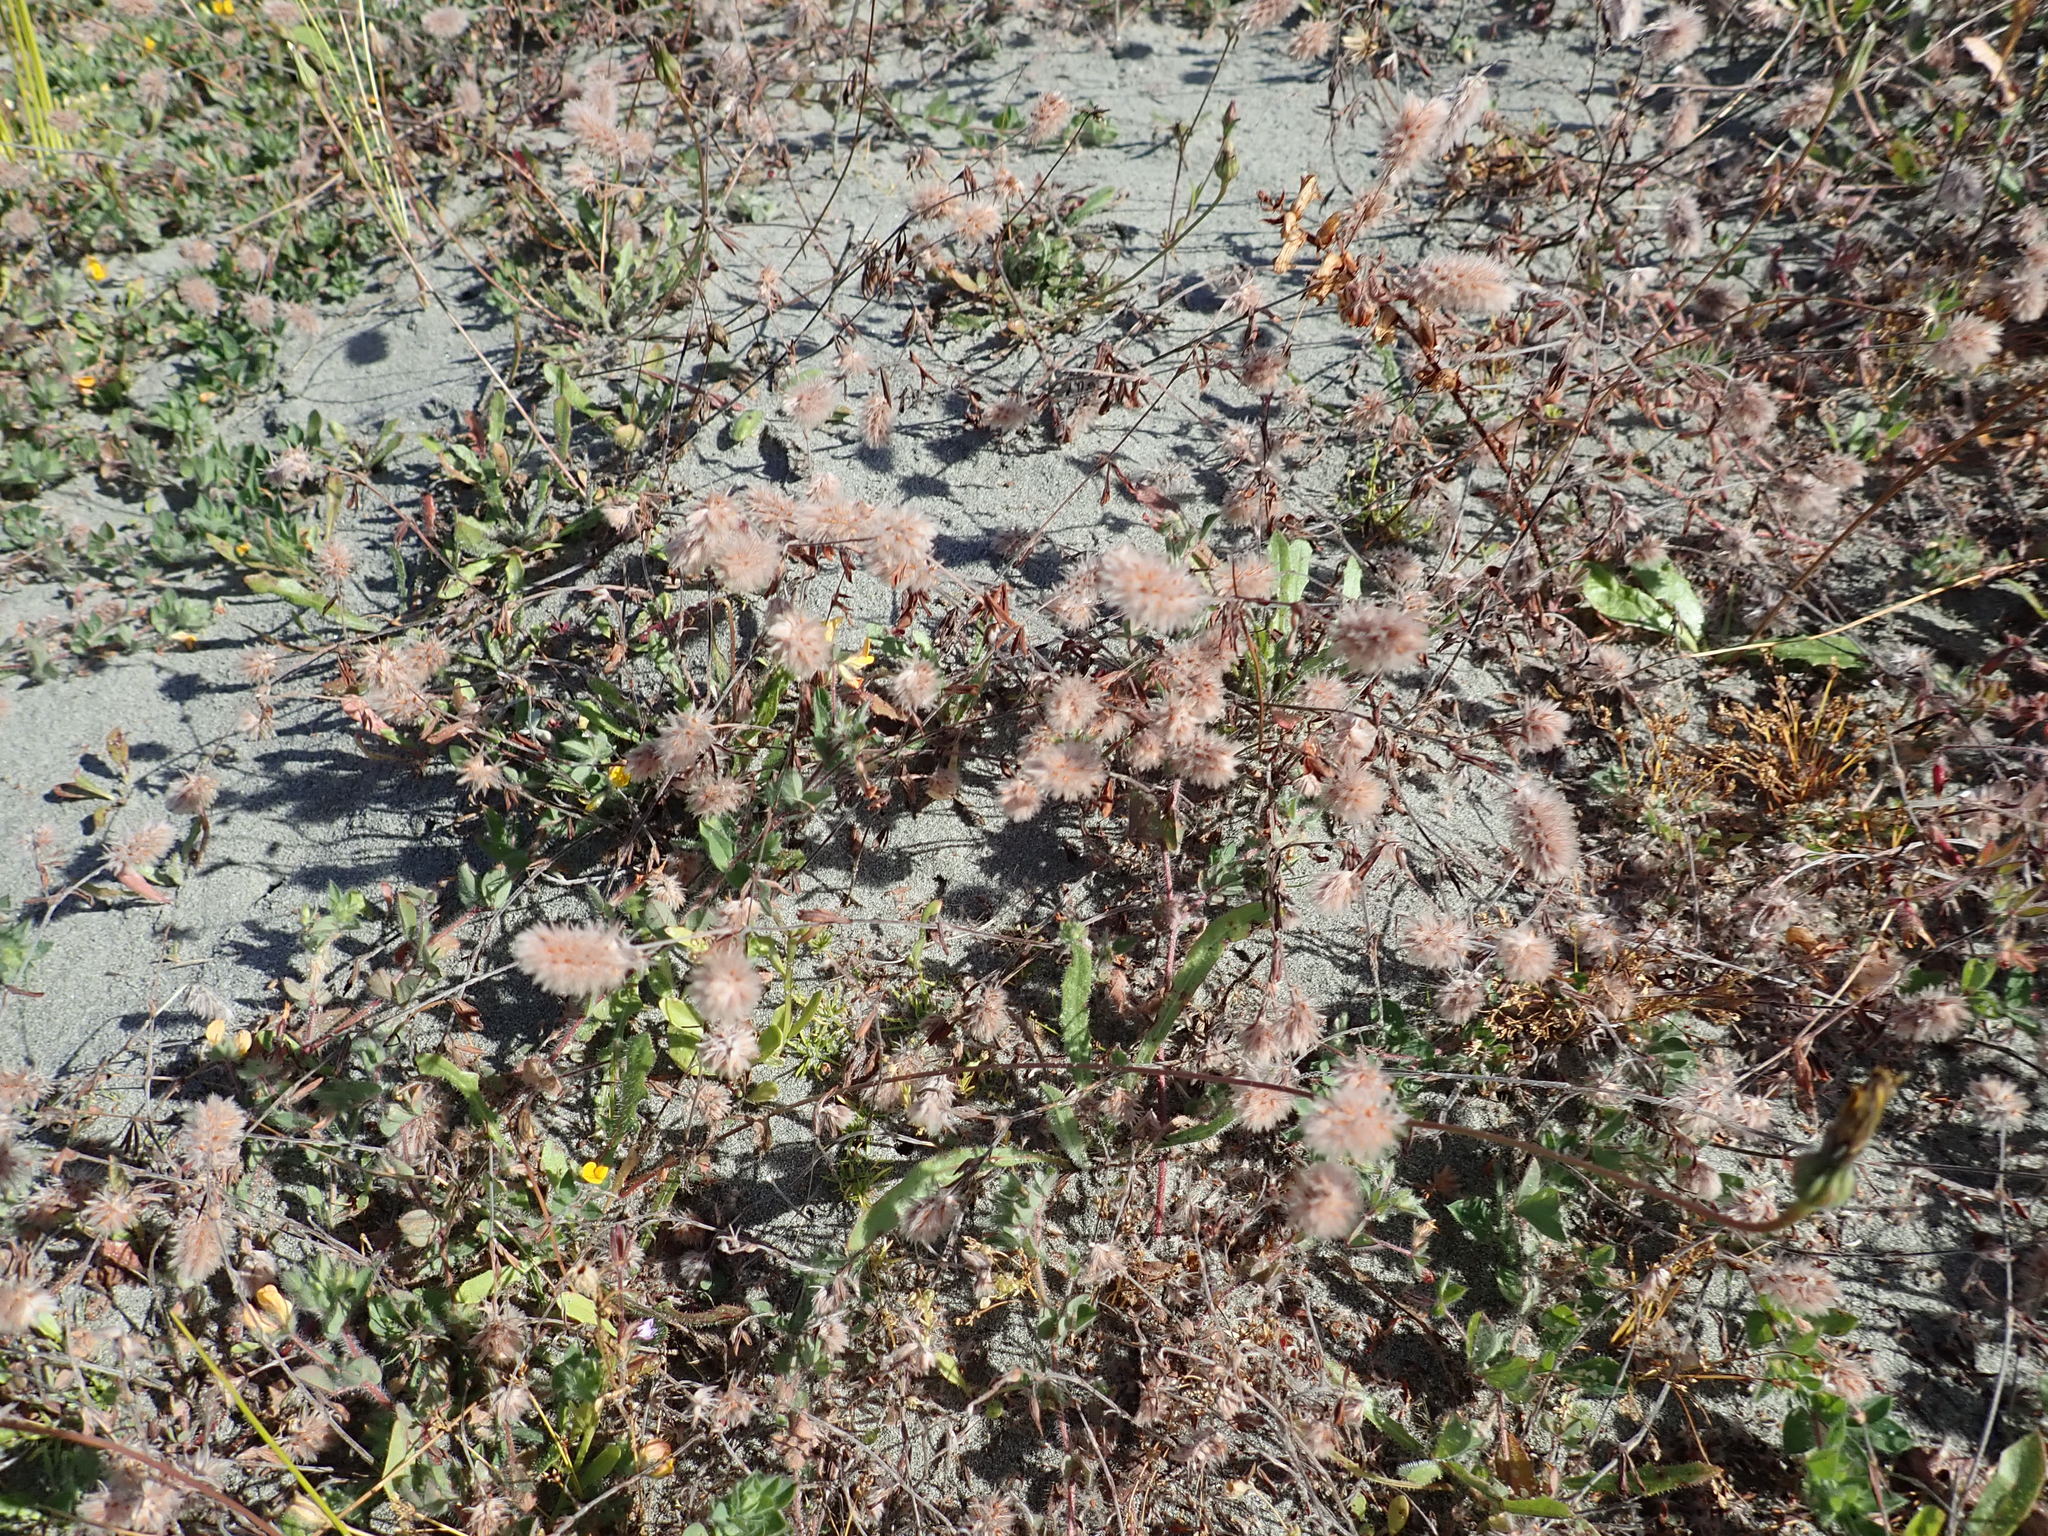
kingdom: Plantae
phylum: Tracheophyta
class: Magnoliopsida
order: Fabales
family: Fabaceae
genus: Trifolium
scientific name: Trifolium arvense
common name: Hare's-foot clover
